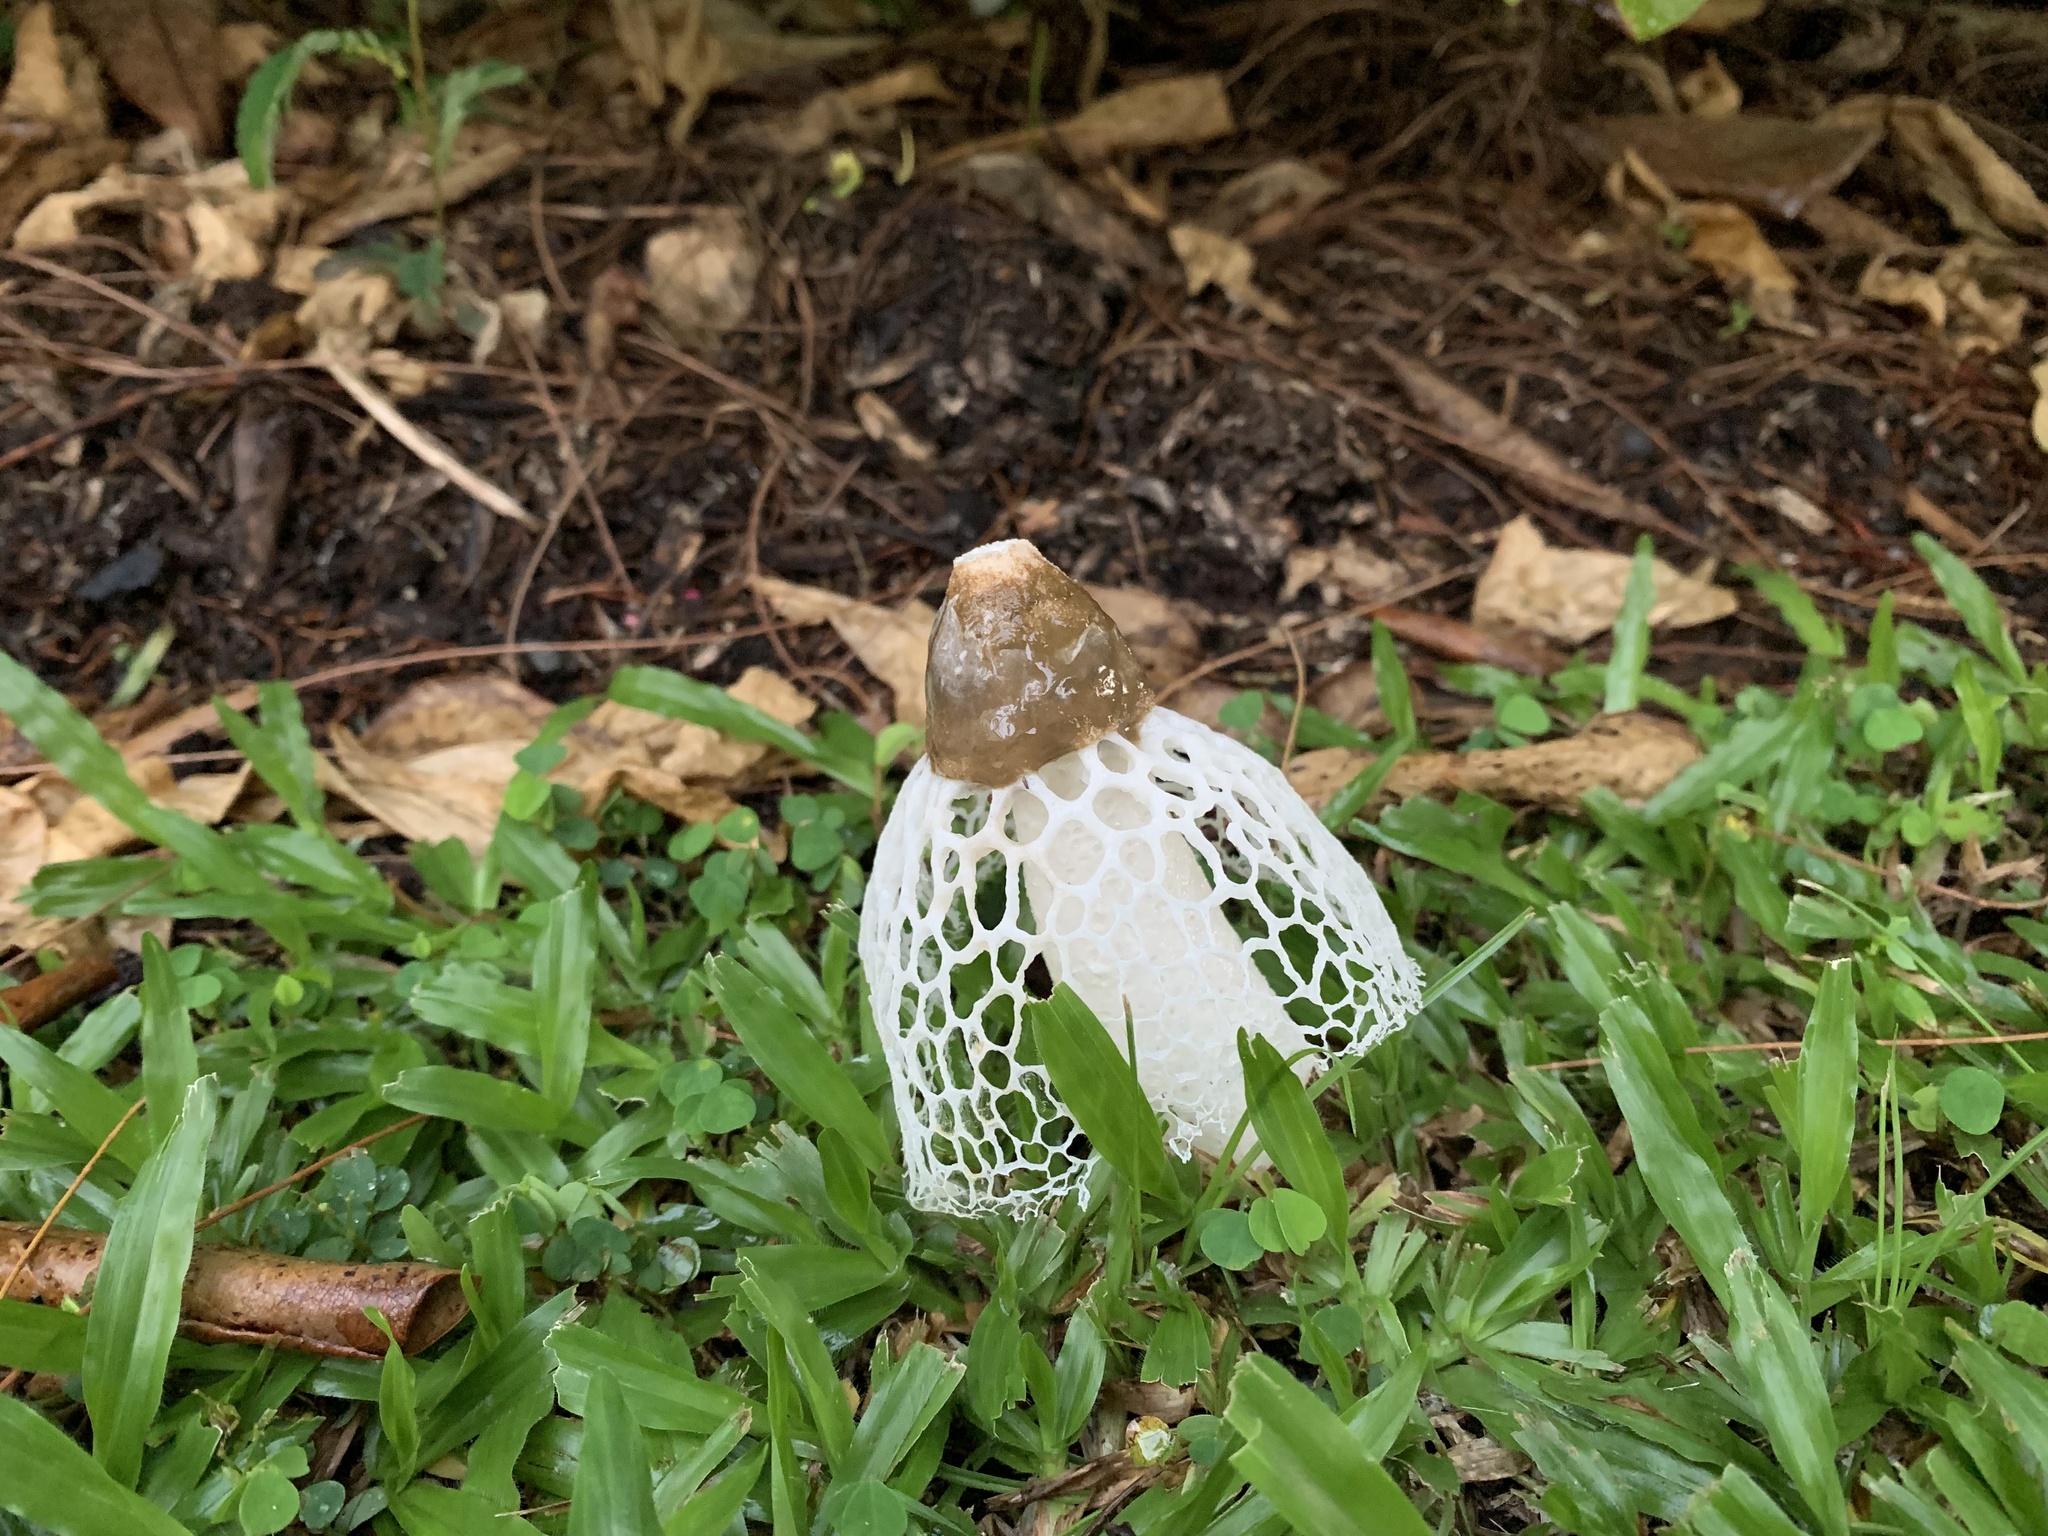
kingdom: Fungi
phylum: Basidiomycota
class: Agaricomycetes
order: Phallales
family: Phallaceae
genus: Phallus
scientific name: Phallus merulinus
